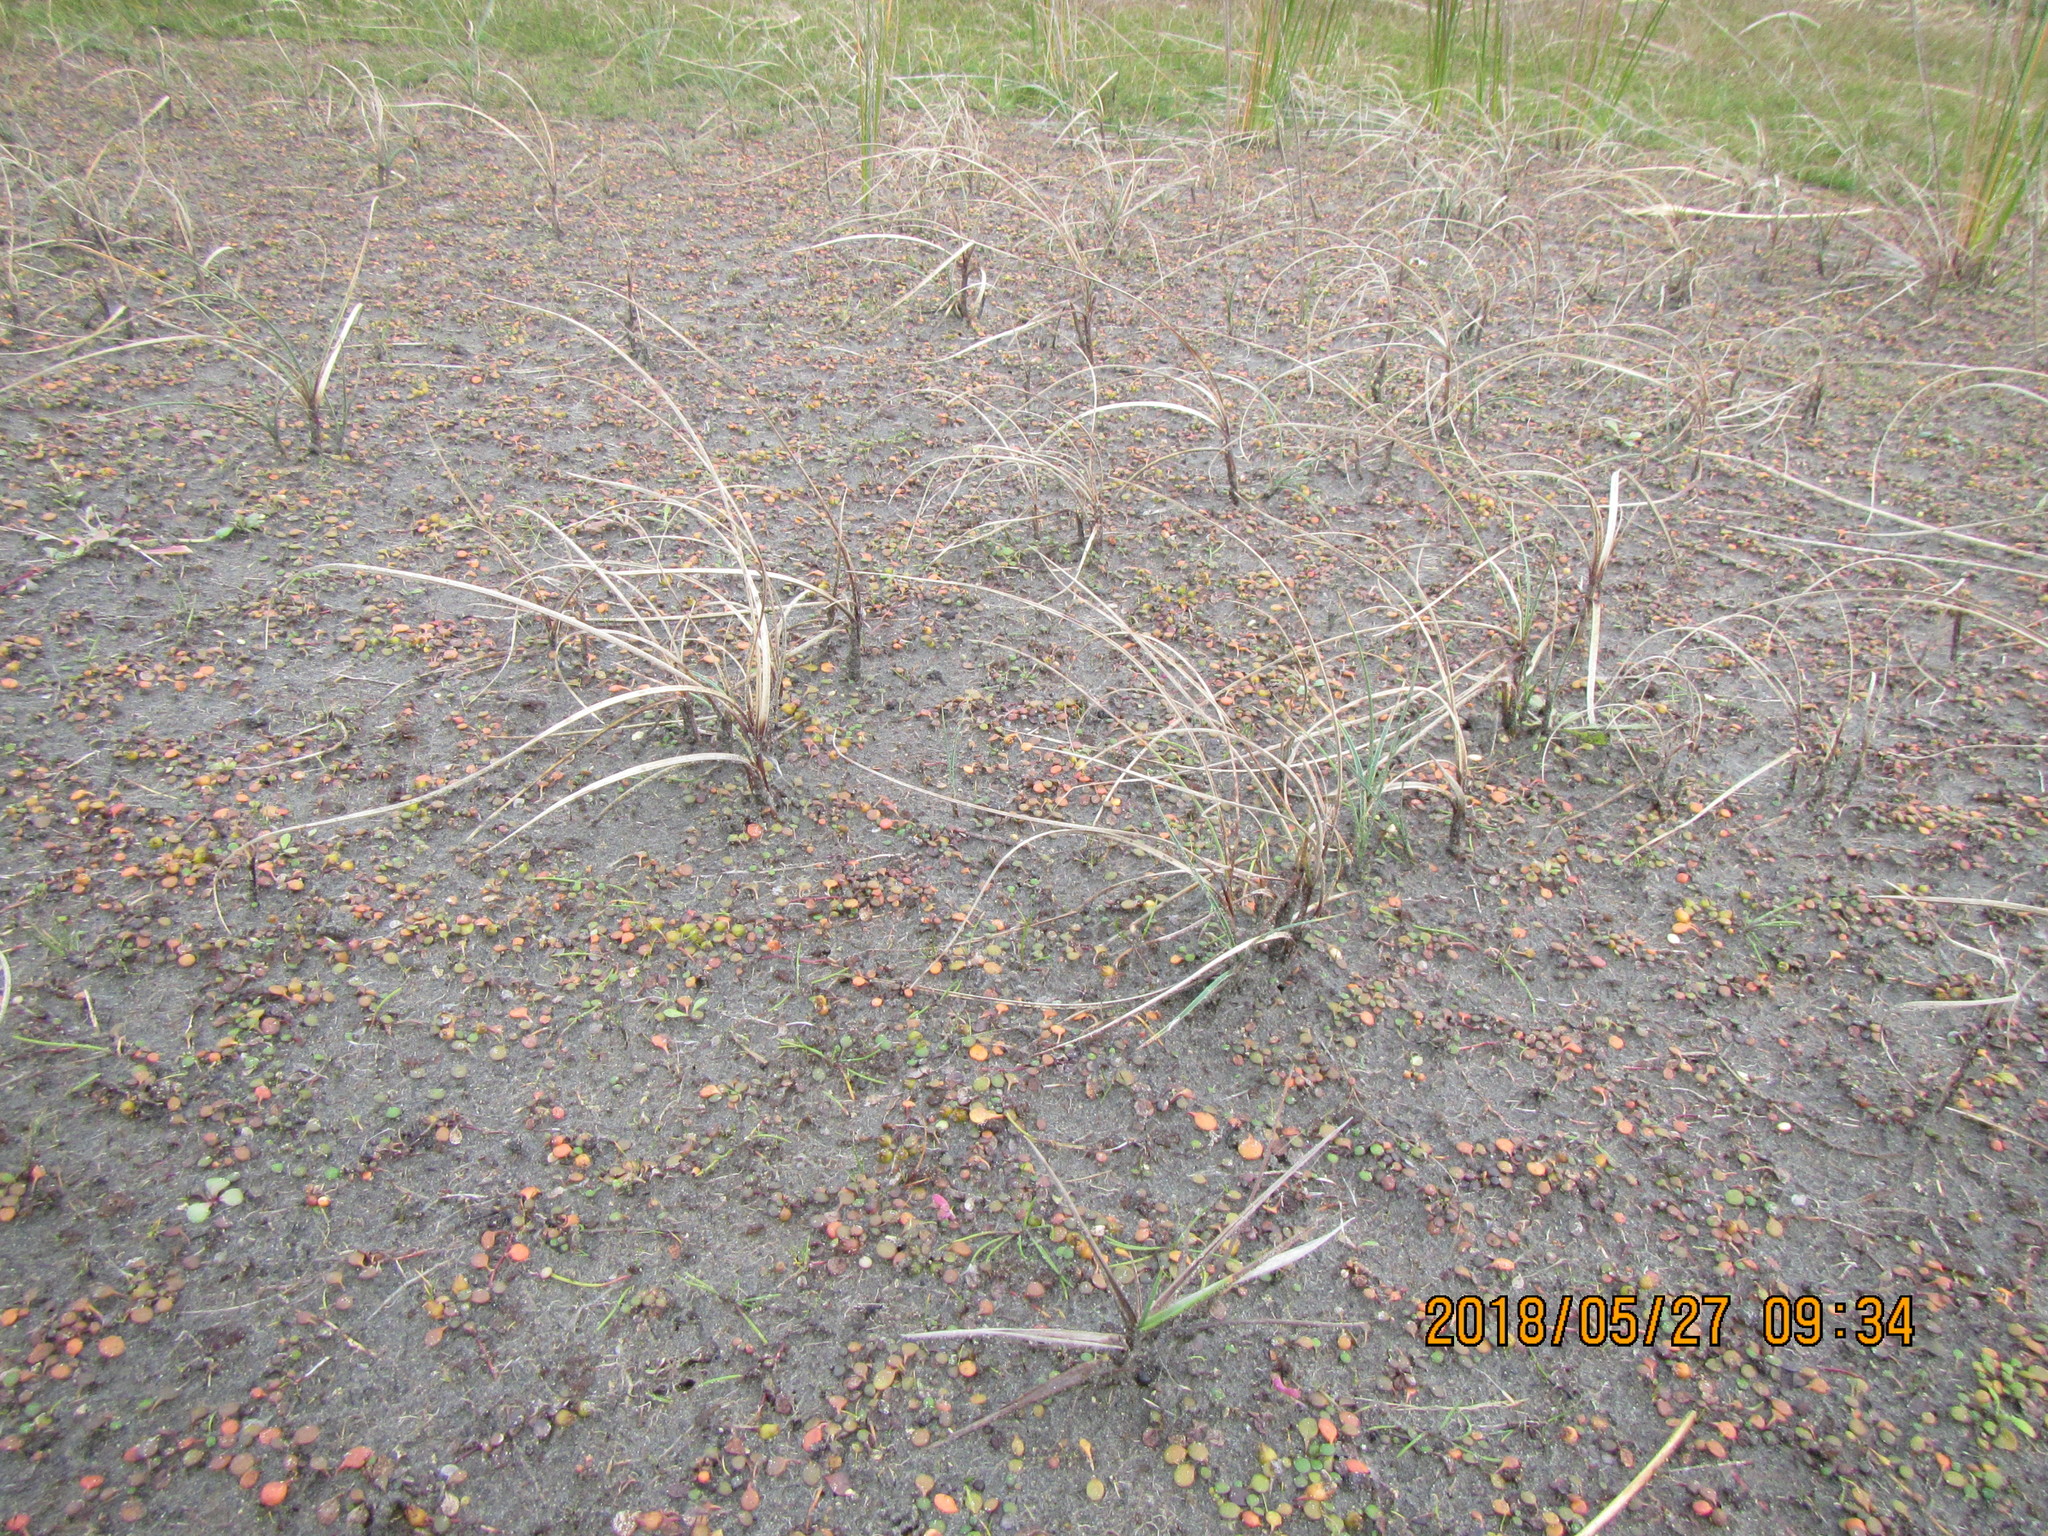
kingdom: Plantae
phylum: Tracheophyta
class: Liliopsida
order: Poales
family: Cyperaceae
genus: Carex
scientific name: Carex pumila
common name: Dwarf sedge
